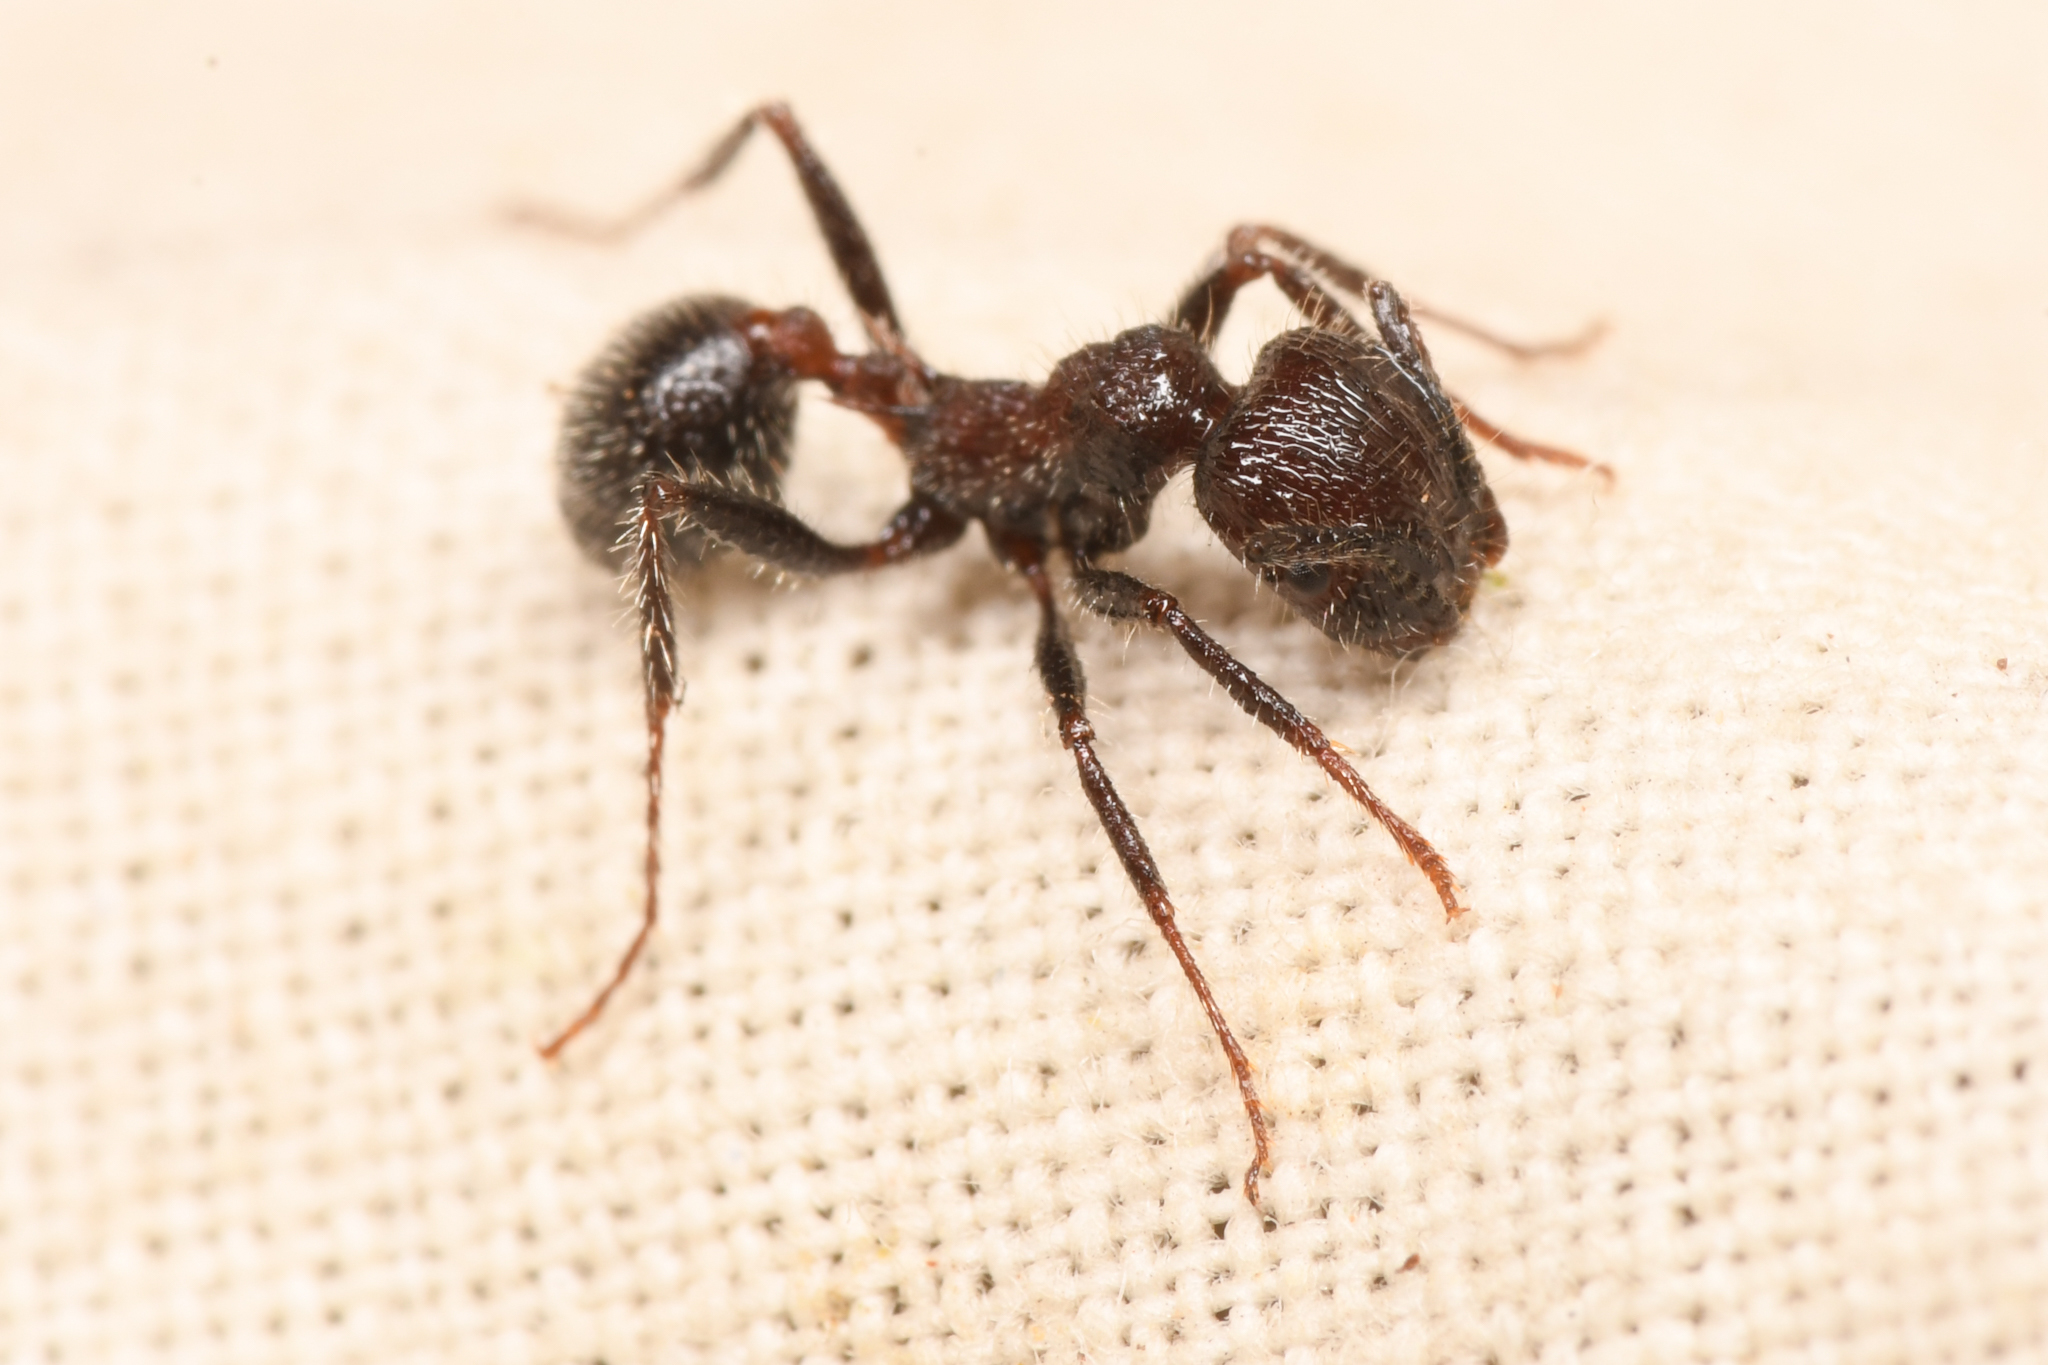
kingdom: Animalia
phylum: Arthropoda
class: Insecta
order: Hymenoptera
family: Formicidae
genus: Veromessor
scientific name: Veromessor andrei
